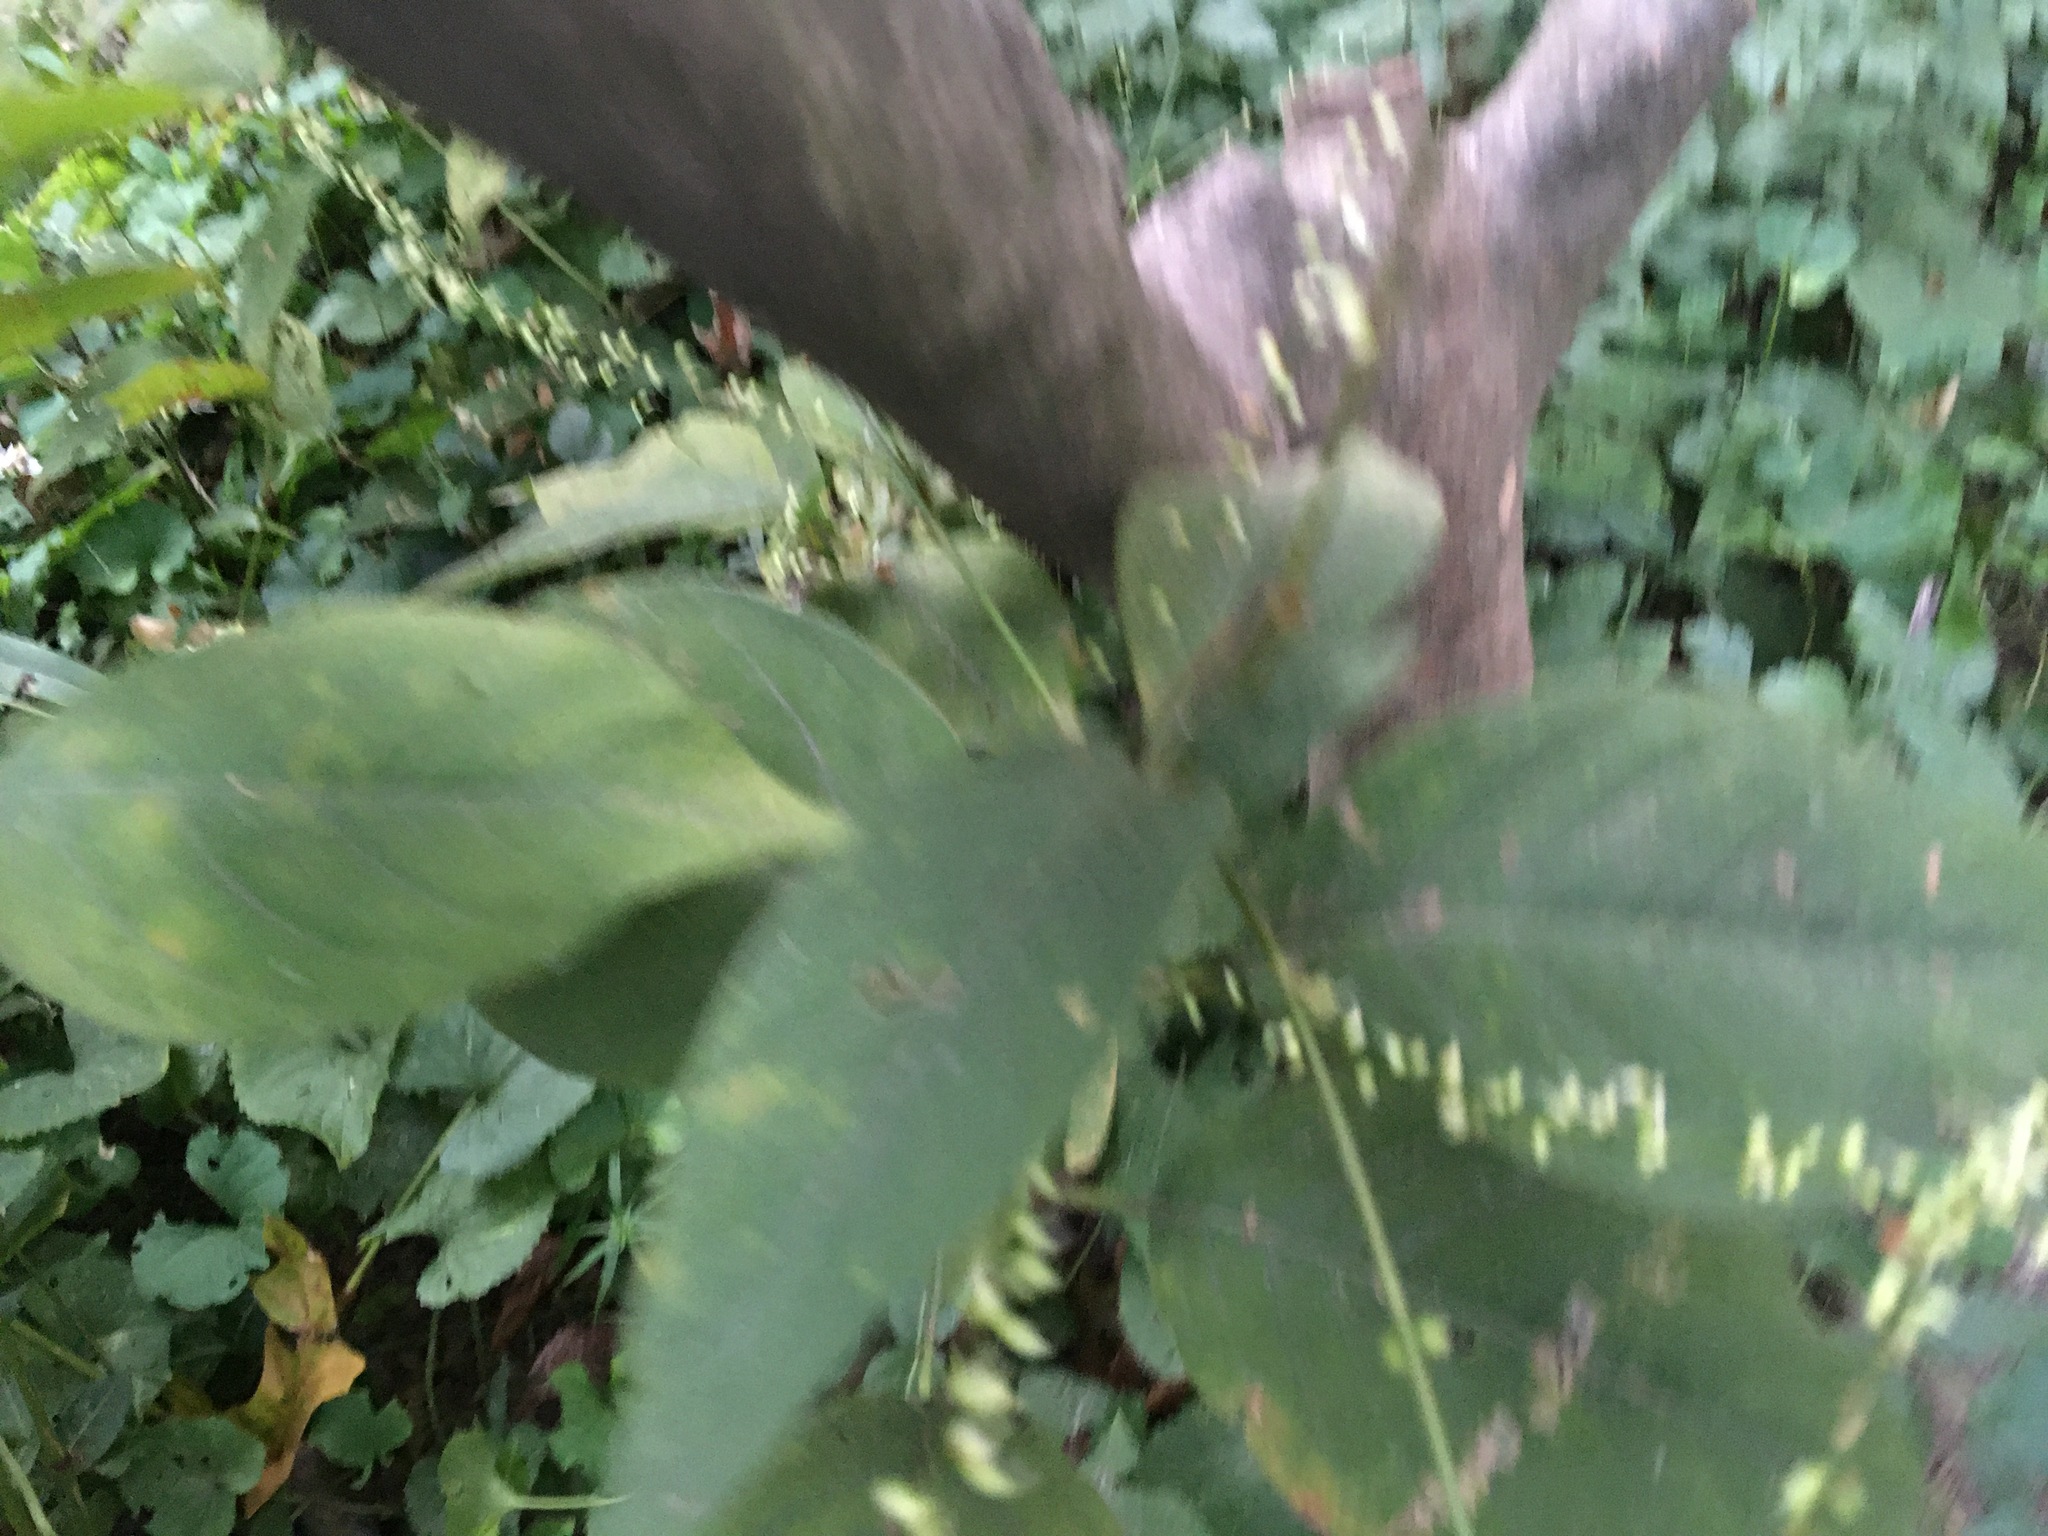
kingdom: Plantae
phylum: Tracheophyta
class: Magnoliopsida
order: Caryophyllales
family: Polygonaceae
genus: Persicaria
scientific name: Persicaria virginiana
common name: Jumpseed
